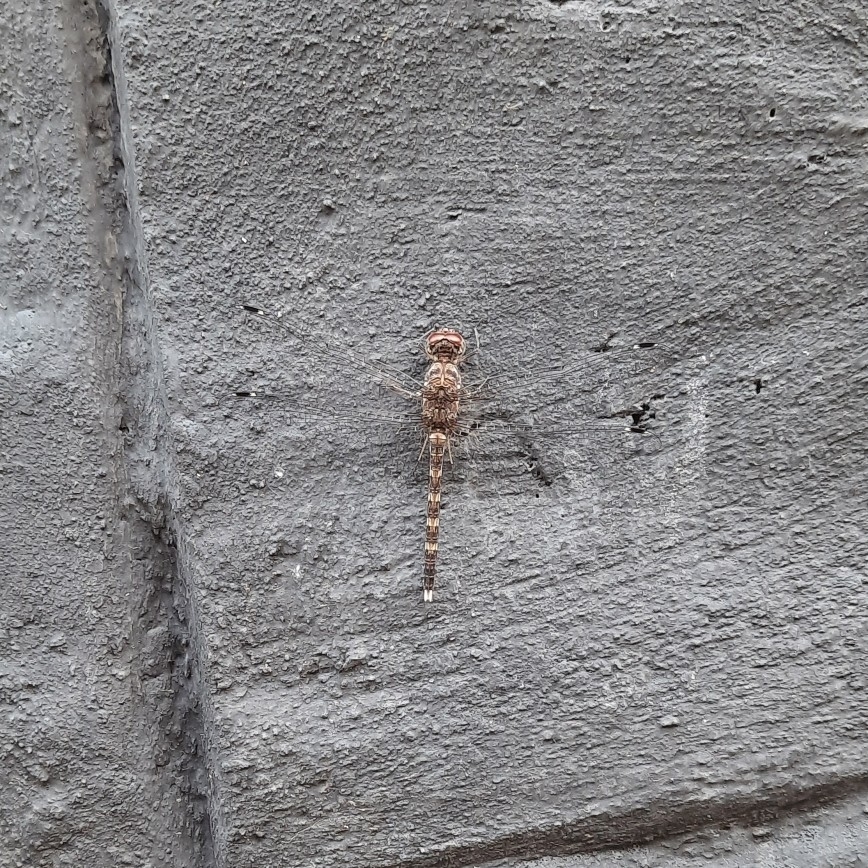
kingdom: Animalia
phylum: Arthropoda
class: Insecta
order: Odonata
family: Libellulidae
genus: Bradinopyga
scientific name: Bradinopyga geminata
